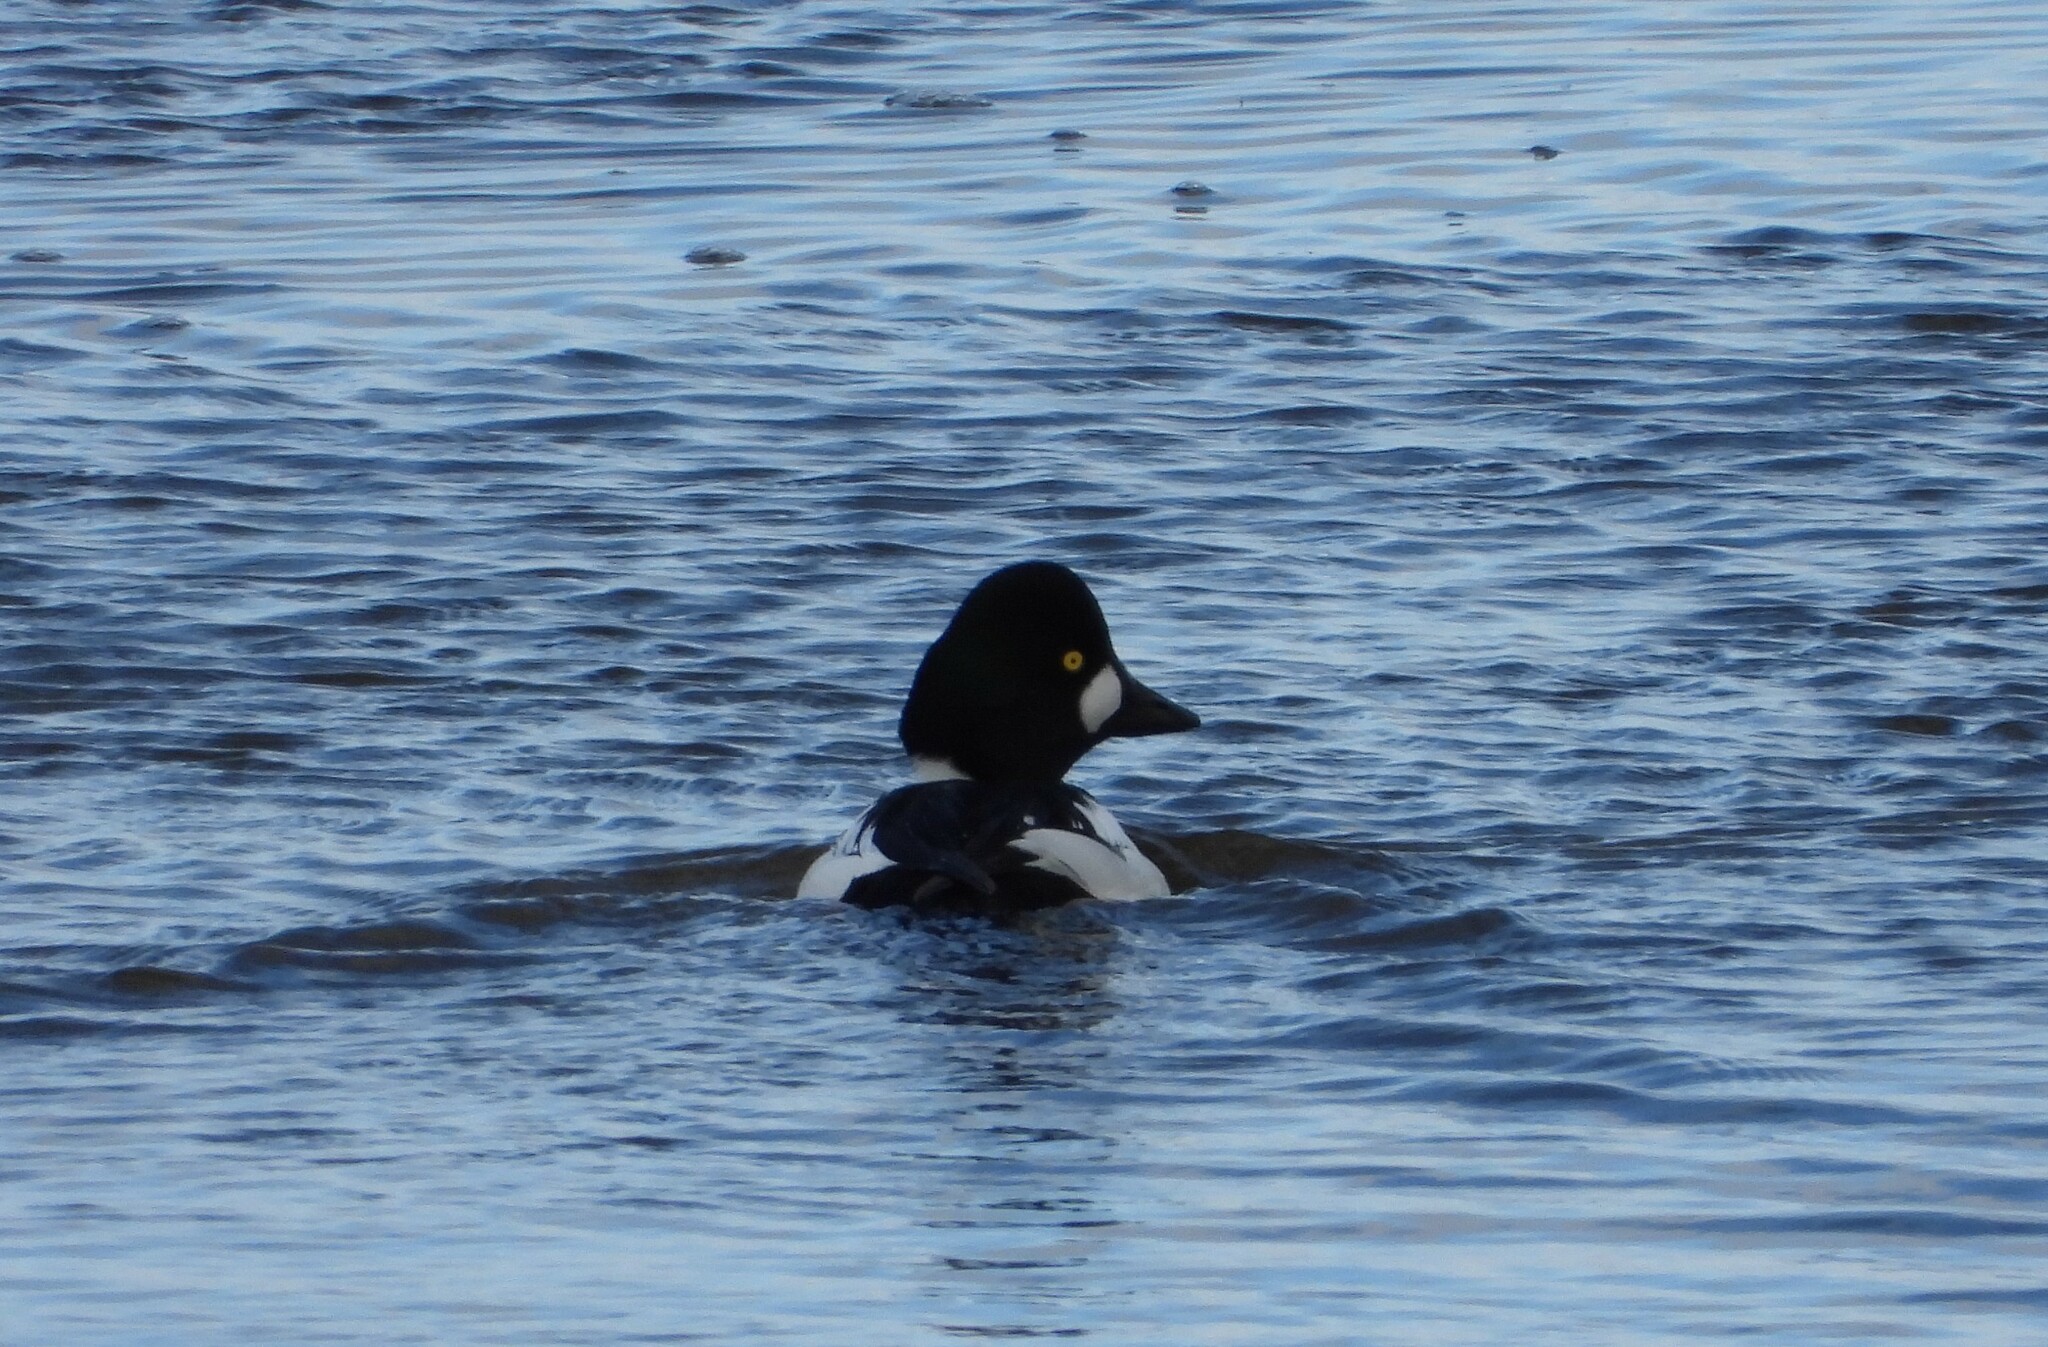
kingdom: Animalia
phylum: Chordata
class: Aves
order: Anseriformes
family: Anatidae
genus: Bucephala
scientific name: Bucephala clangula
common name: Common goldeneye
